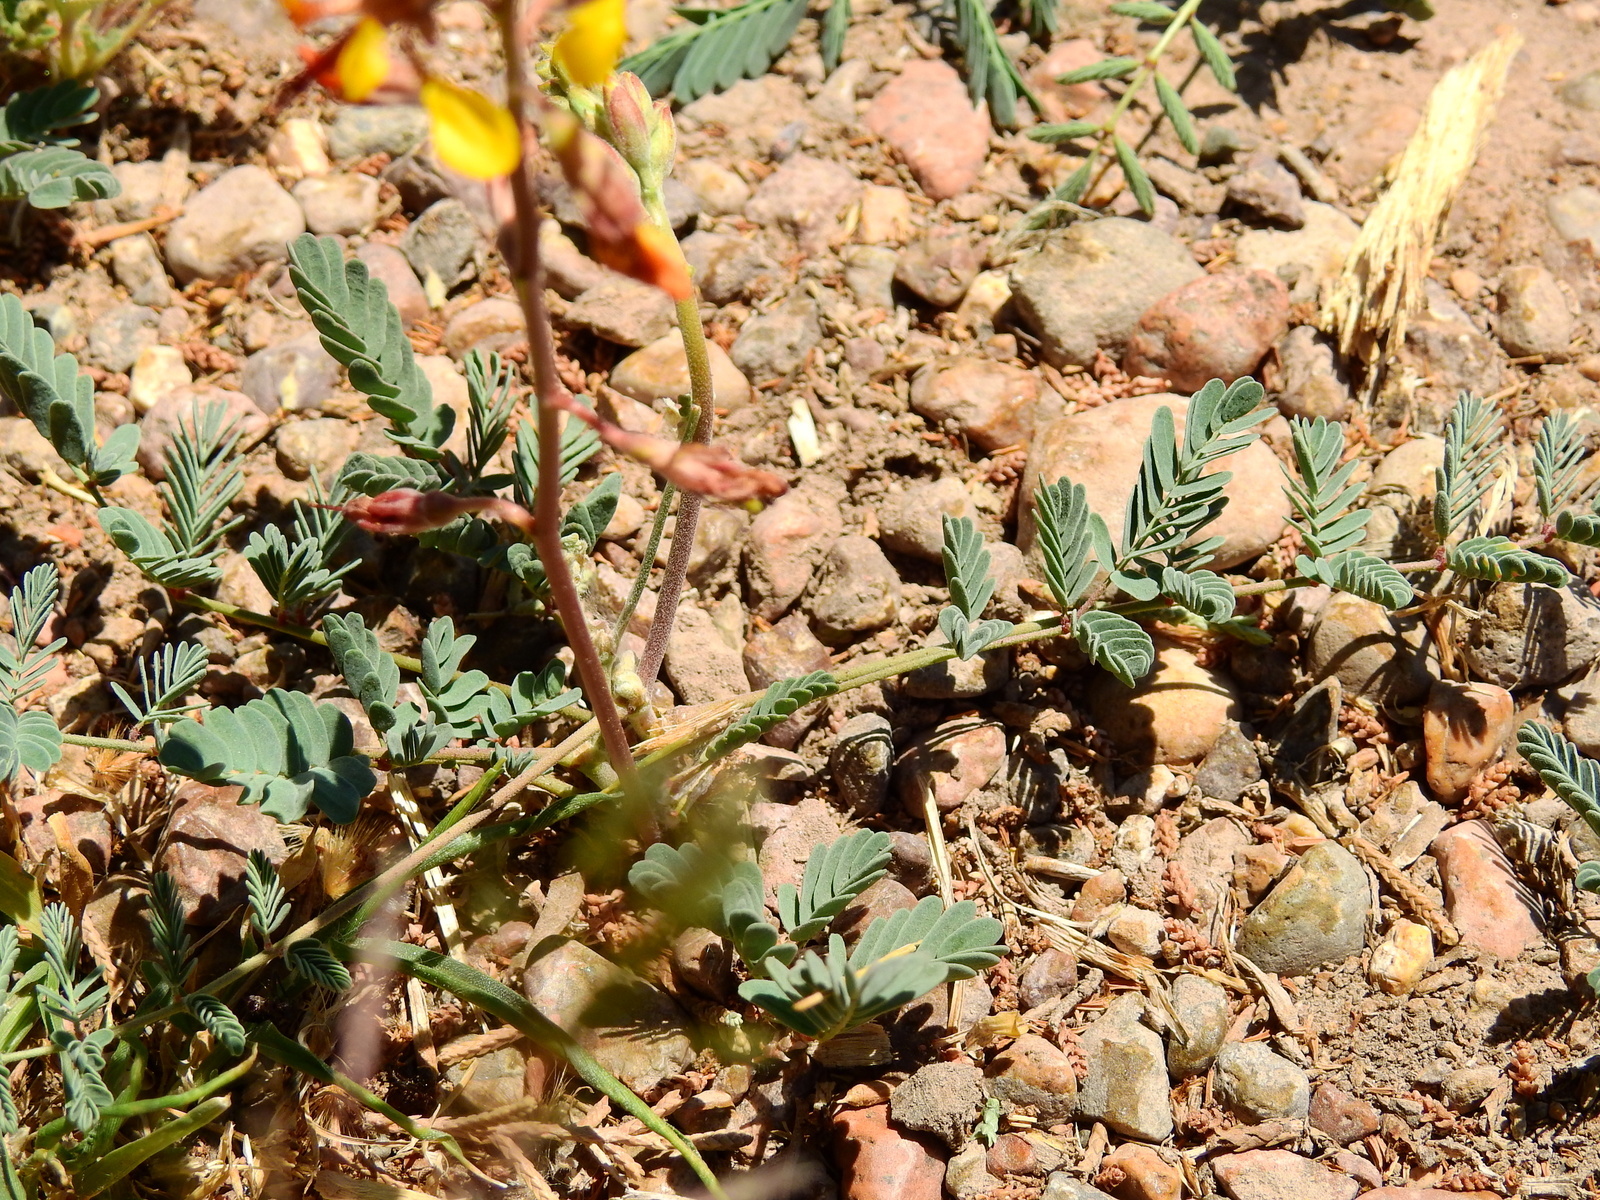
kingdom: Plantae
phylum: Tracheophyta
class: Magnoliopsida
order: Fabales
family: Fabaceae
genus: Hoffmannseggia
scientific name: Hoffmannseggia glauca
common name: Pignut
